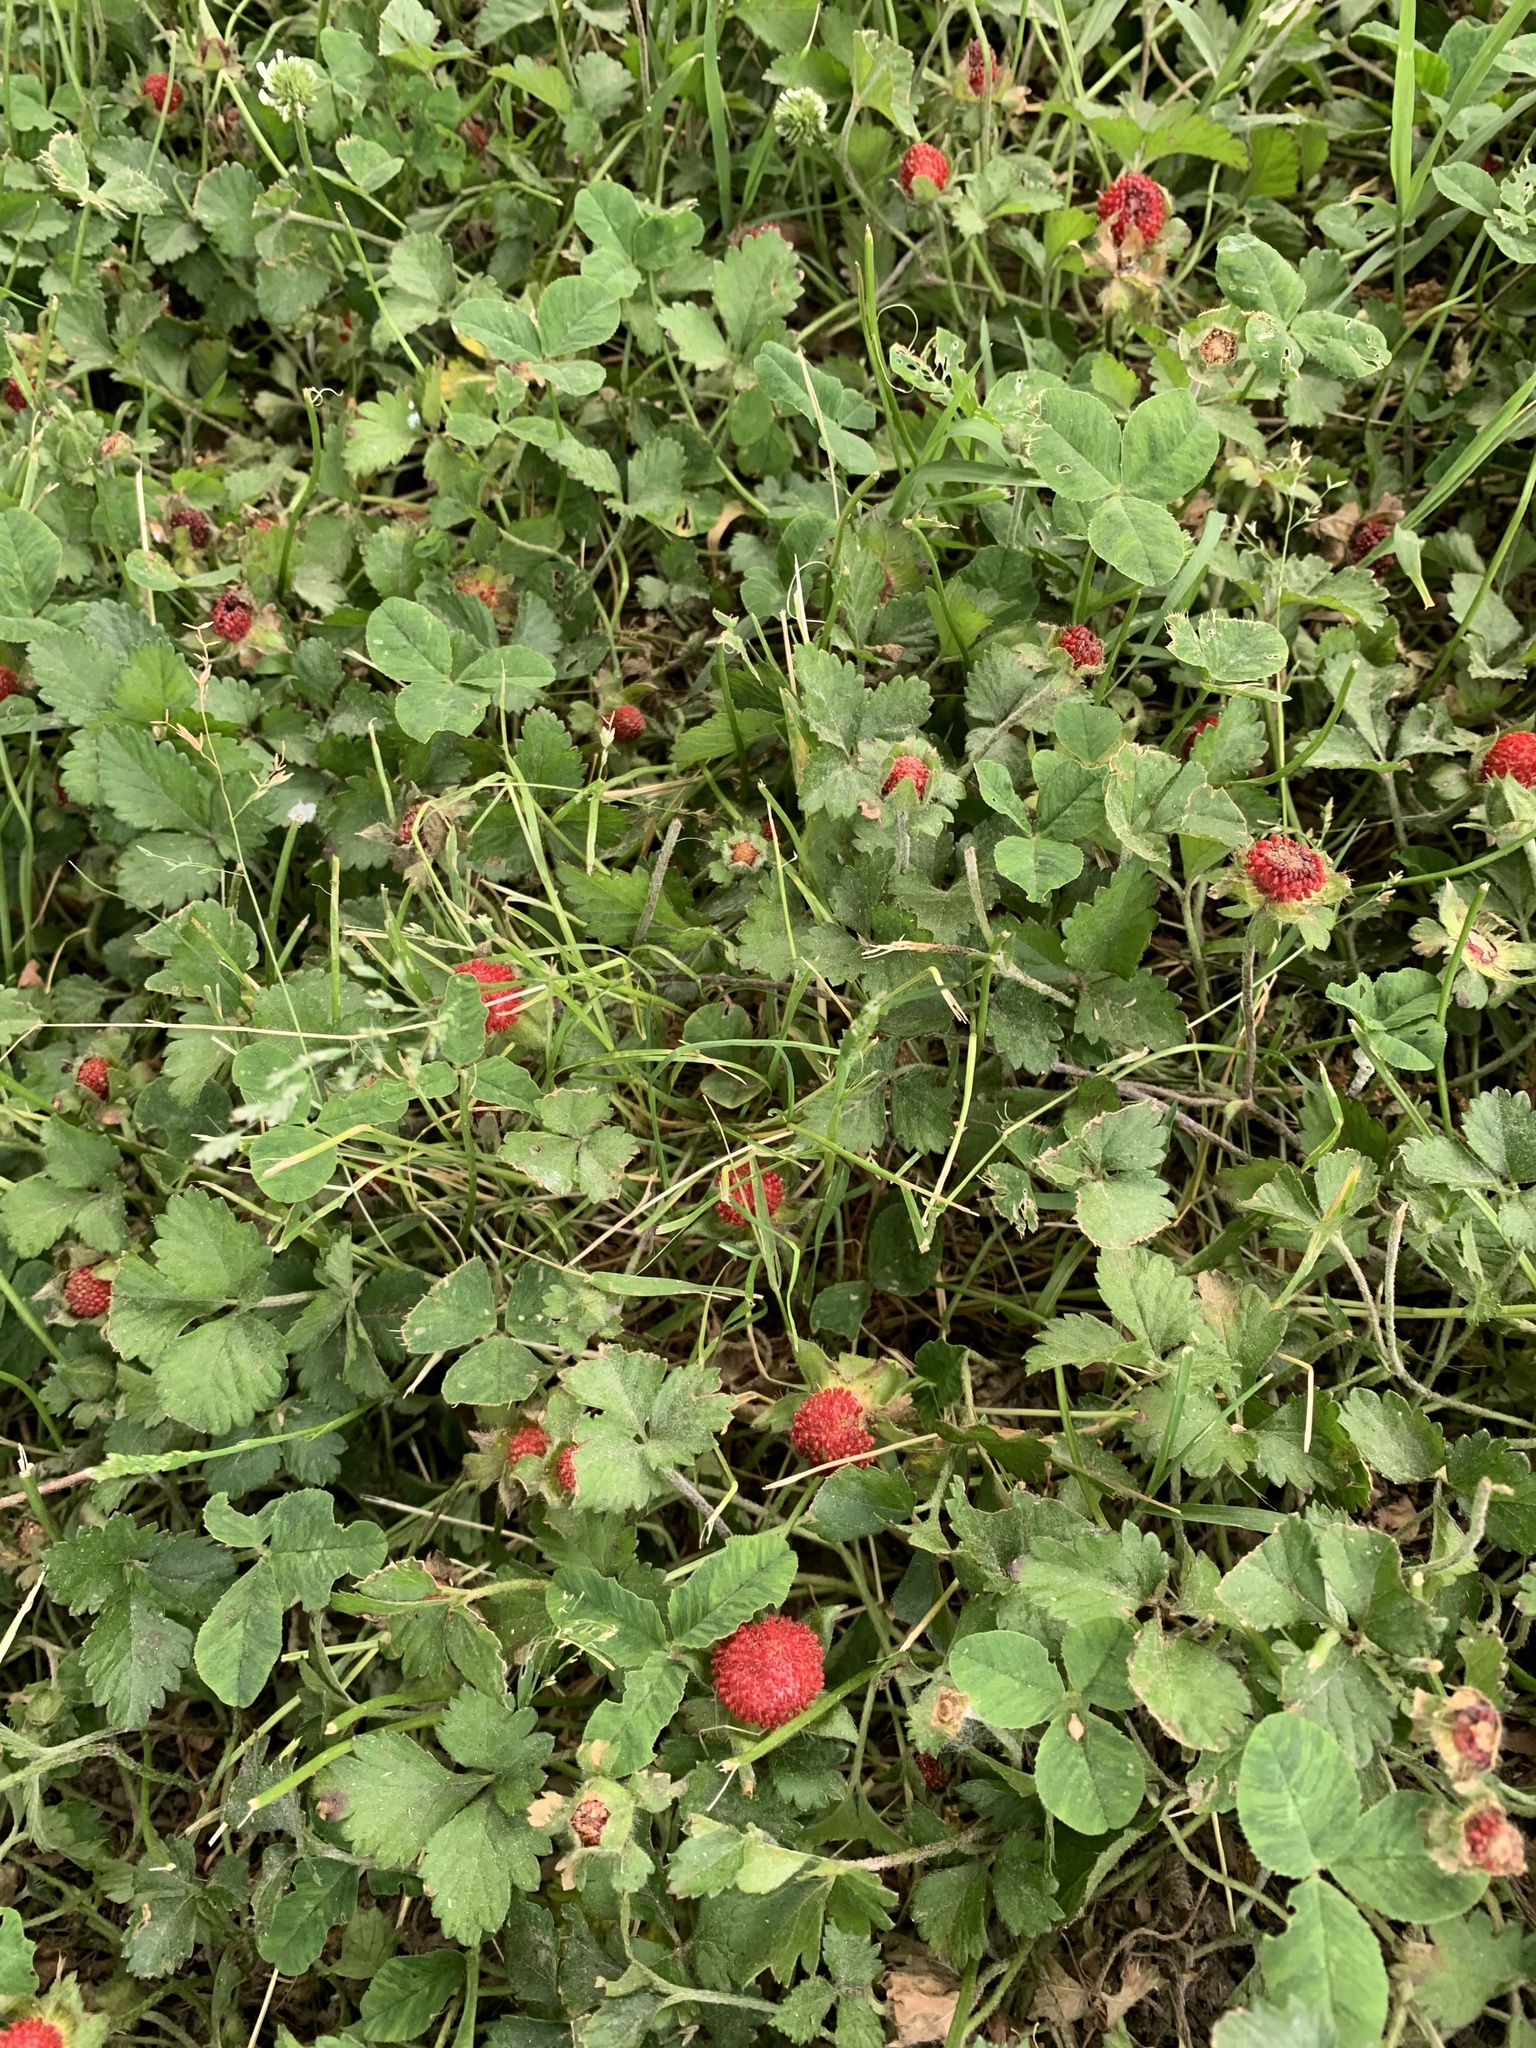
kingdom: Plantae
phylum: Tracheophyta
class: Magnoliopsida
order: Rosales
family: Rosaceae
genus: Potentilla
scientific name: Potentilla indica
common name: Yellow-flowered strawberry
